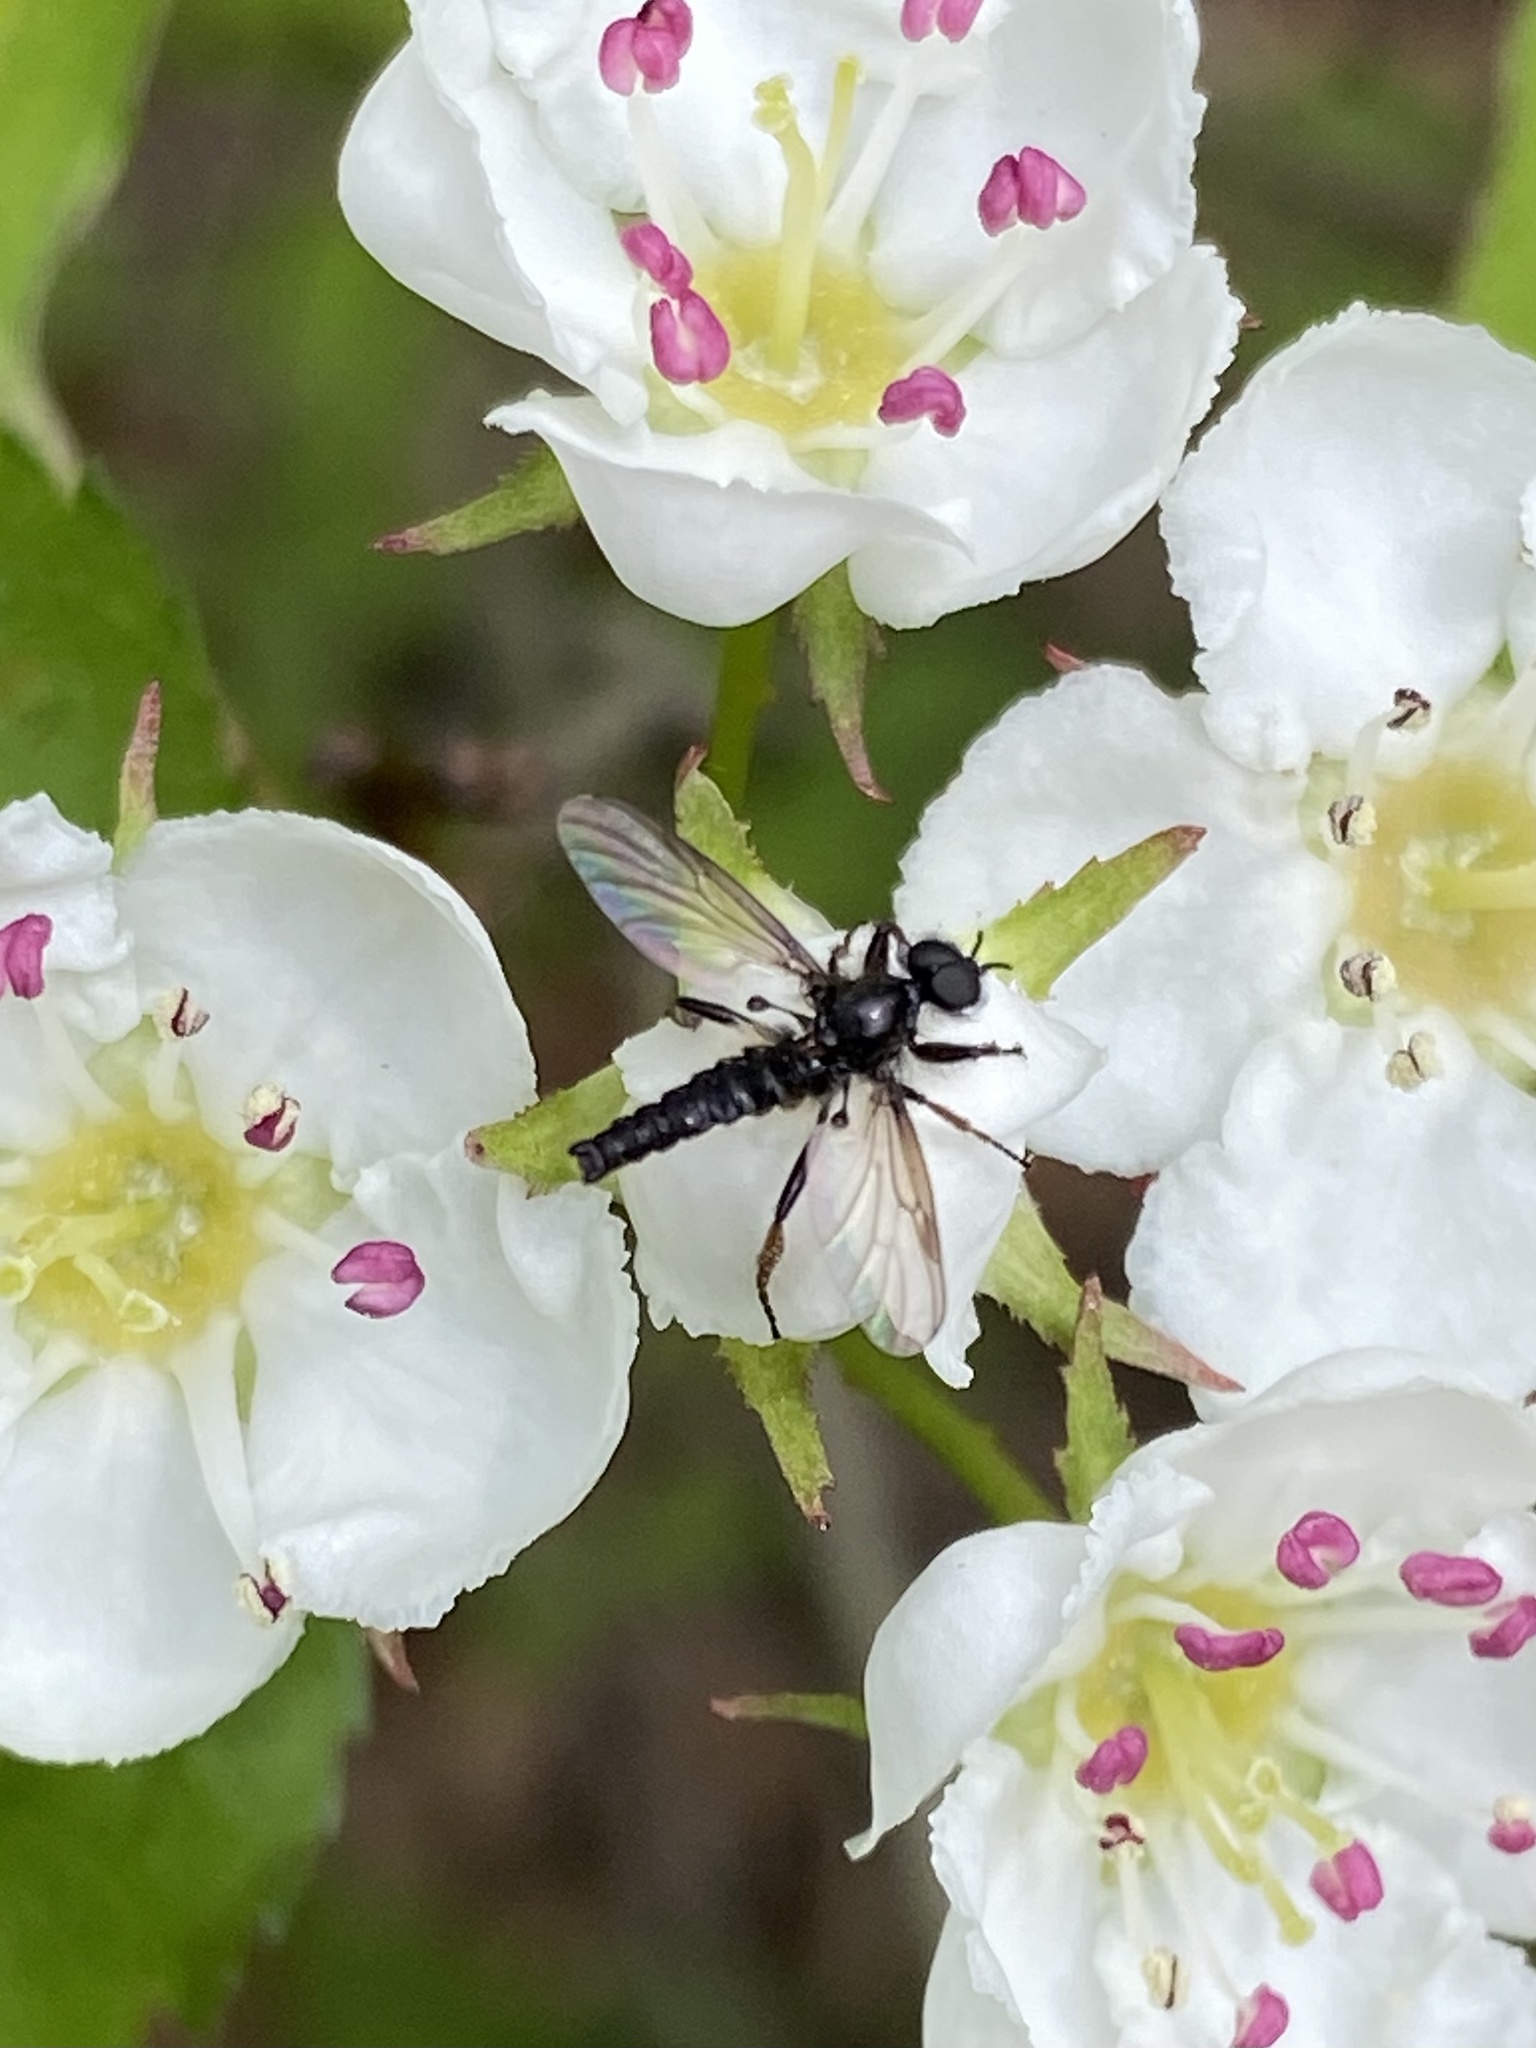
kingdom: Animalia
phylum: Arthropoda
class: Insecta
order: Diptera
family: Bibionidae
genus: Bibio
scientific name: Bibio lanigerus
